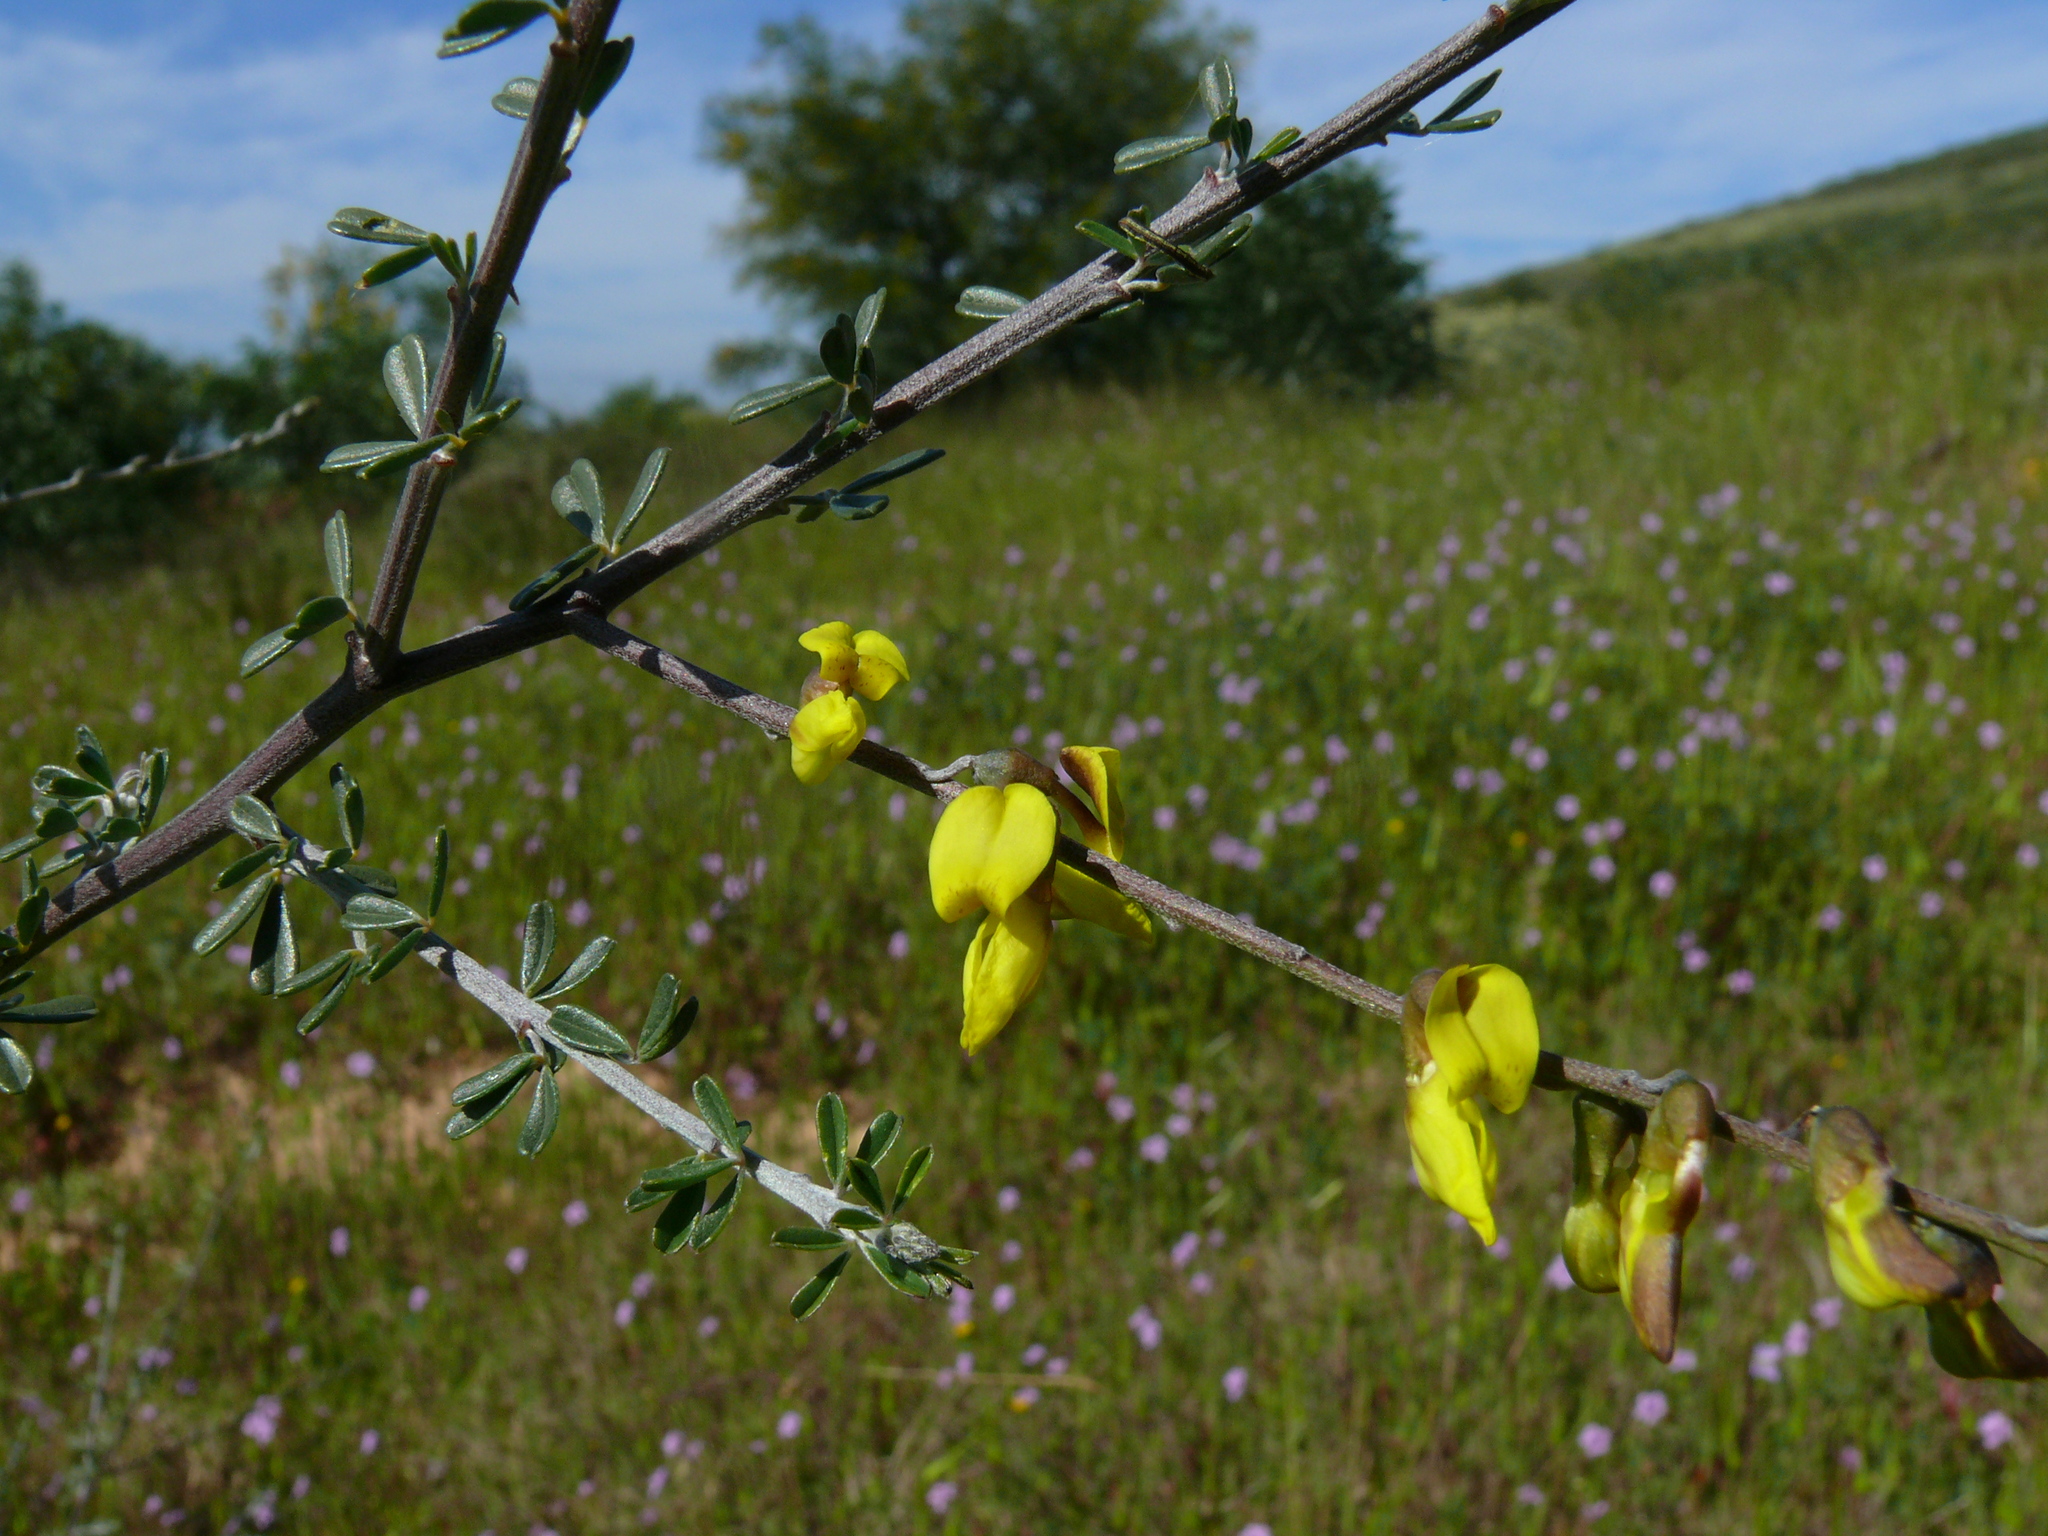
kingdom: Plantae
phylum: Tracheophyta
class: Magnoliopsida
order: Fabales
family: Fabaceae
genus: Wiborgia
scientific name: Wiborgia obcordata
